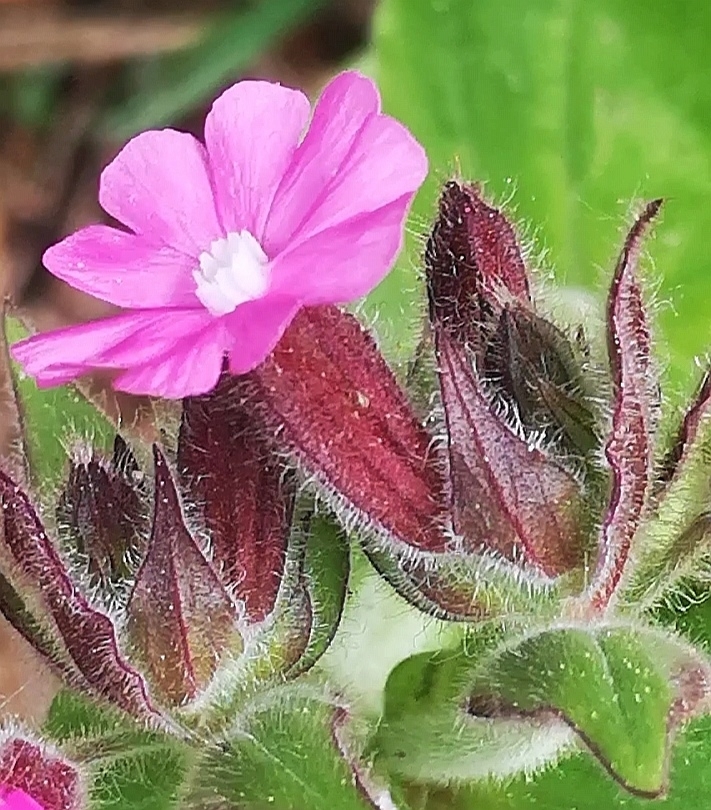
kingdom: Plantae
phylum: Tracheophyta
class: Magnoliopsida
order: Caryophyllales
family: Caryophyllaceae
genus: Silene
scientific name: Silene dioica
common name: Red campion
